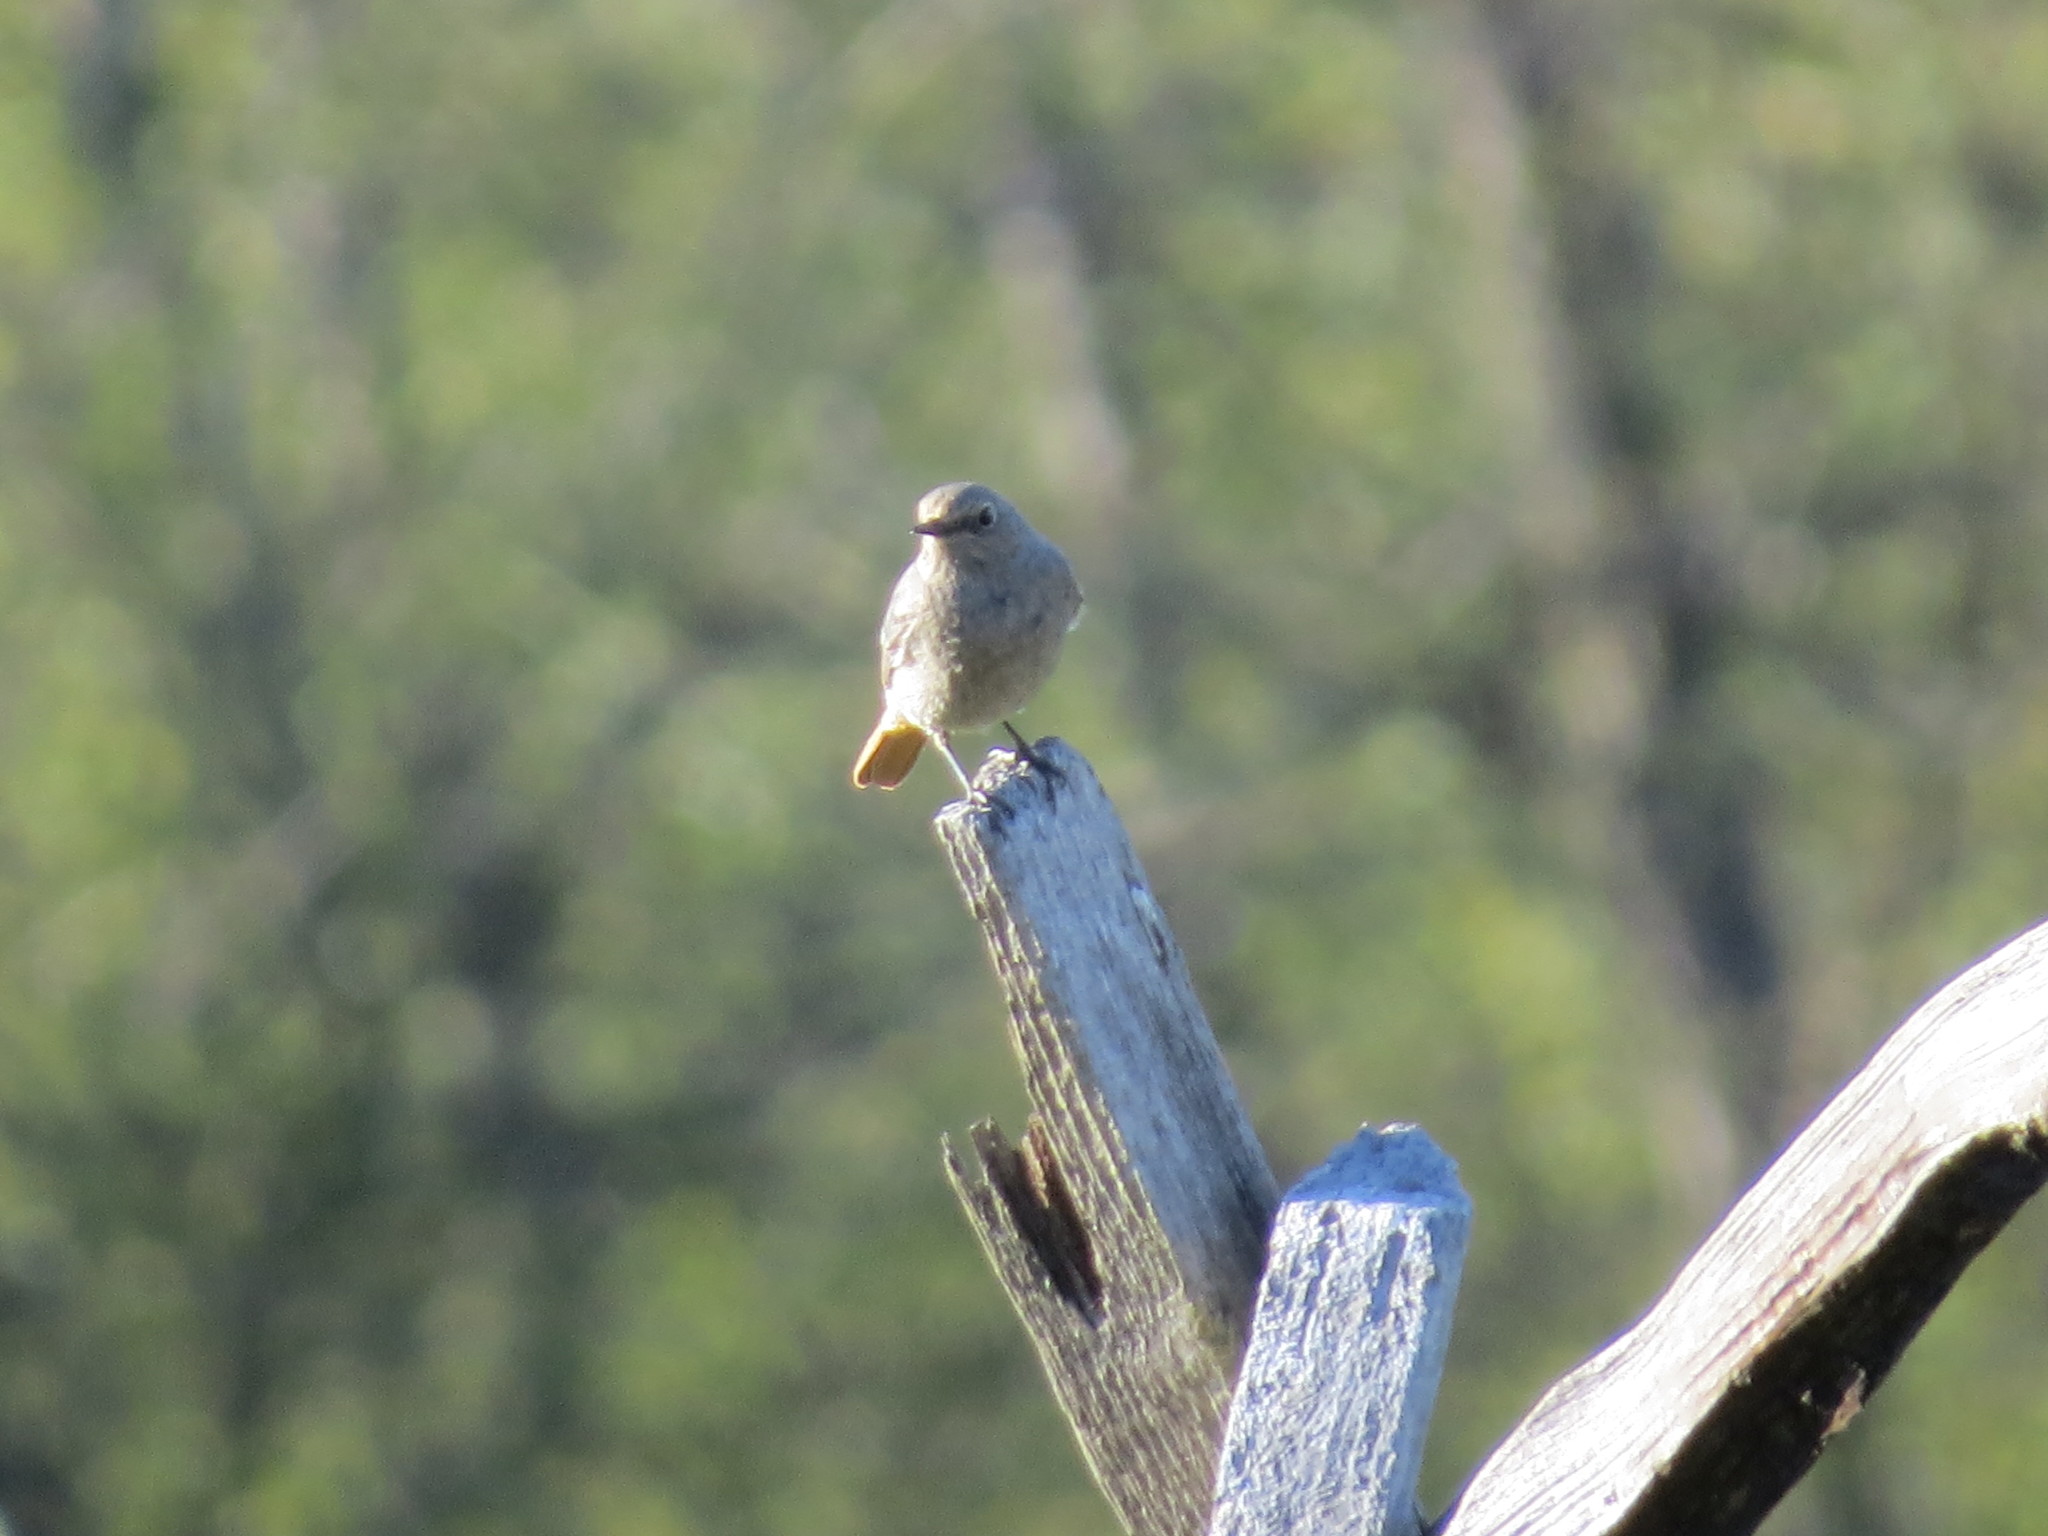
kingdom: Animalia
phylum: Chordata
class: Aves
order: Passeriformes
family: Muscicapidae
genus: Phoenicurus
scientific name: Phoenicurus ochruros
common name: Black redstart
